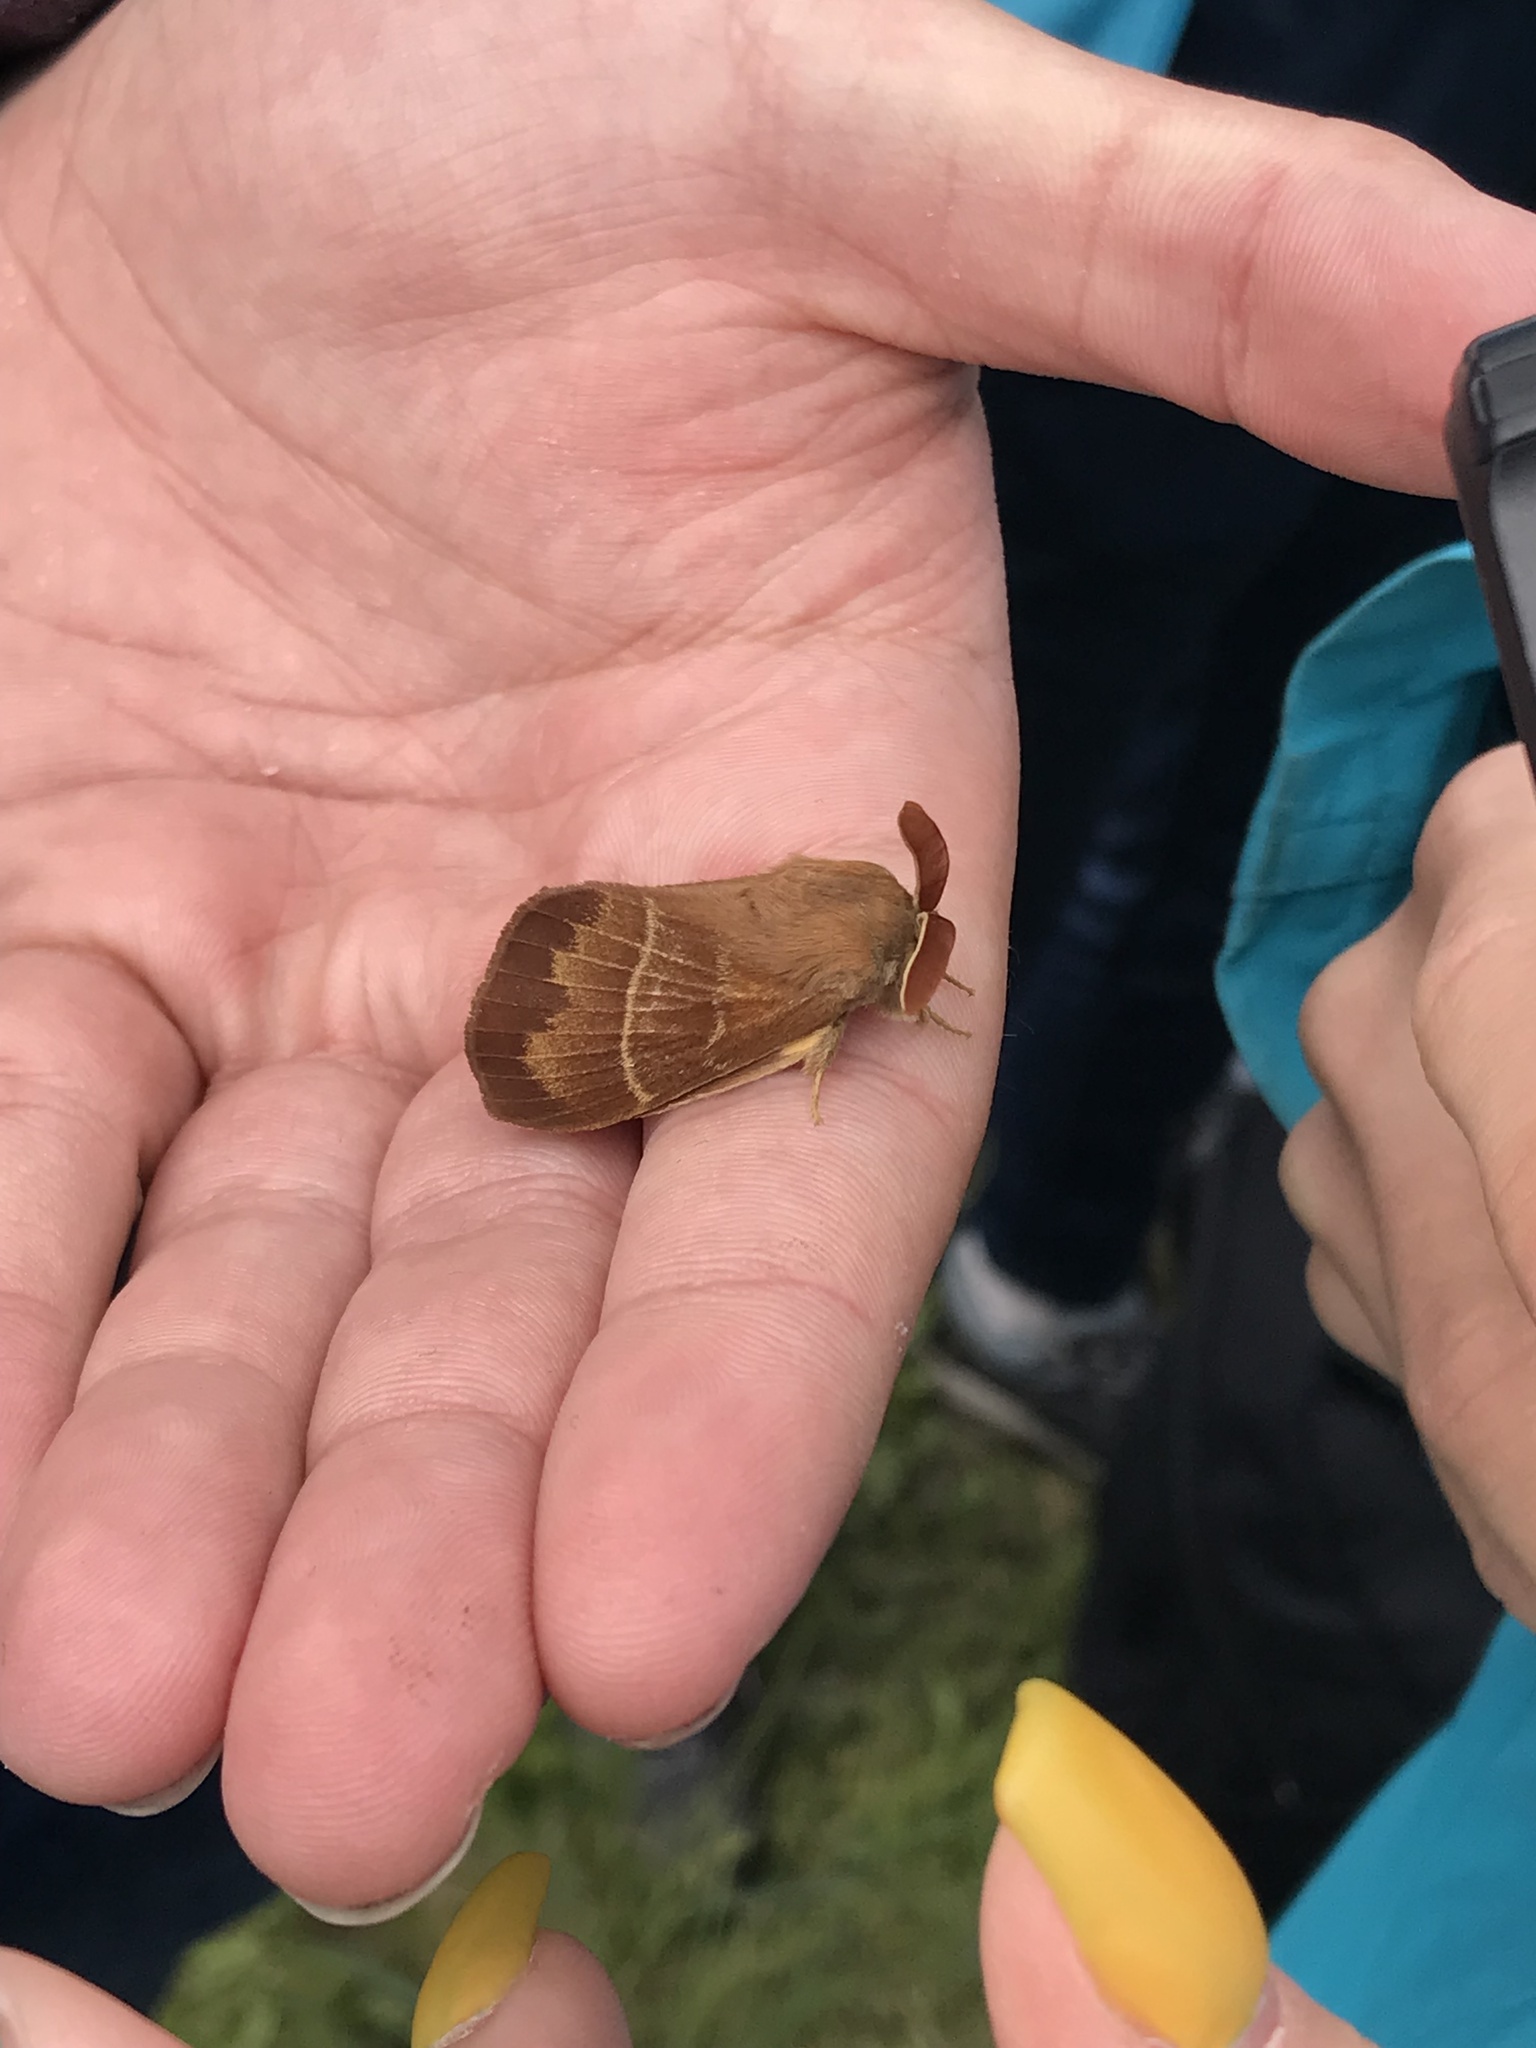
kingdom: Animalia
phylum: Arthropoda
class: Insecta
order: Lepidoptera
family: Lasiocampidae
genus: Macrothylacia
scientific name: Macrothylacia rubi
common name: Fox moth
